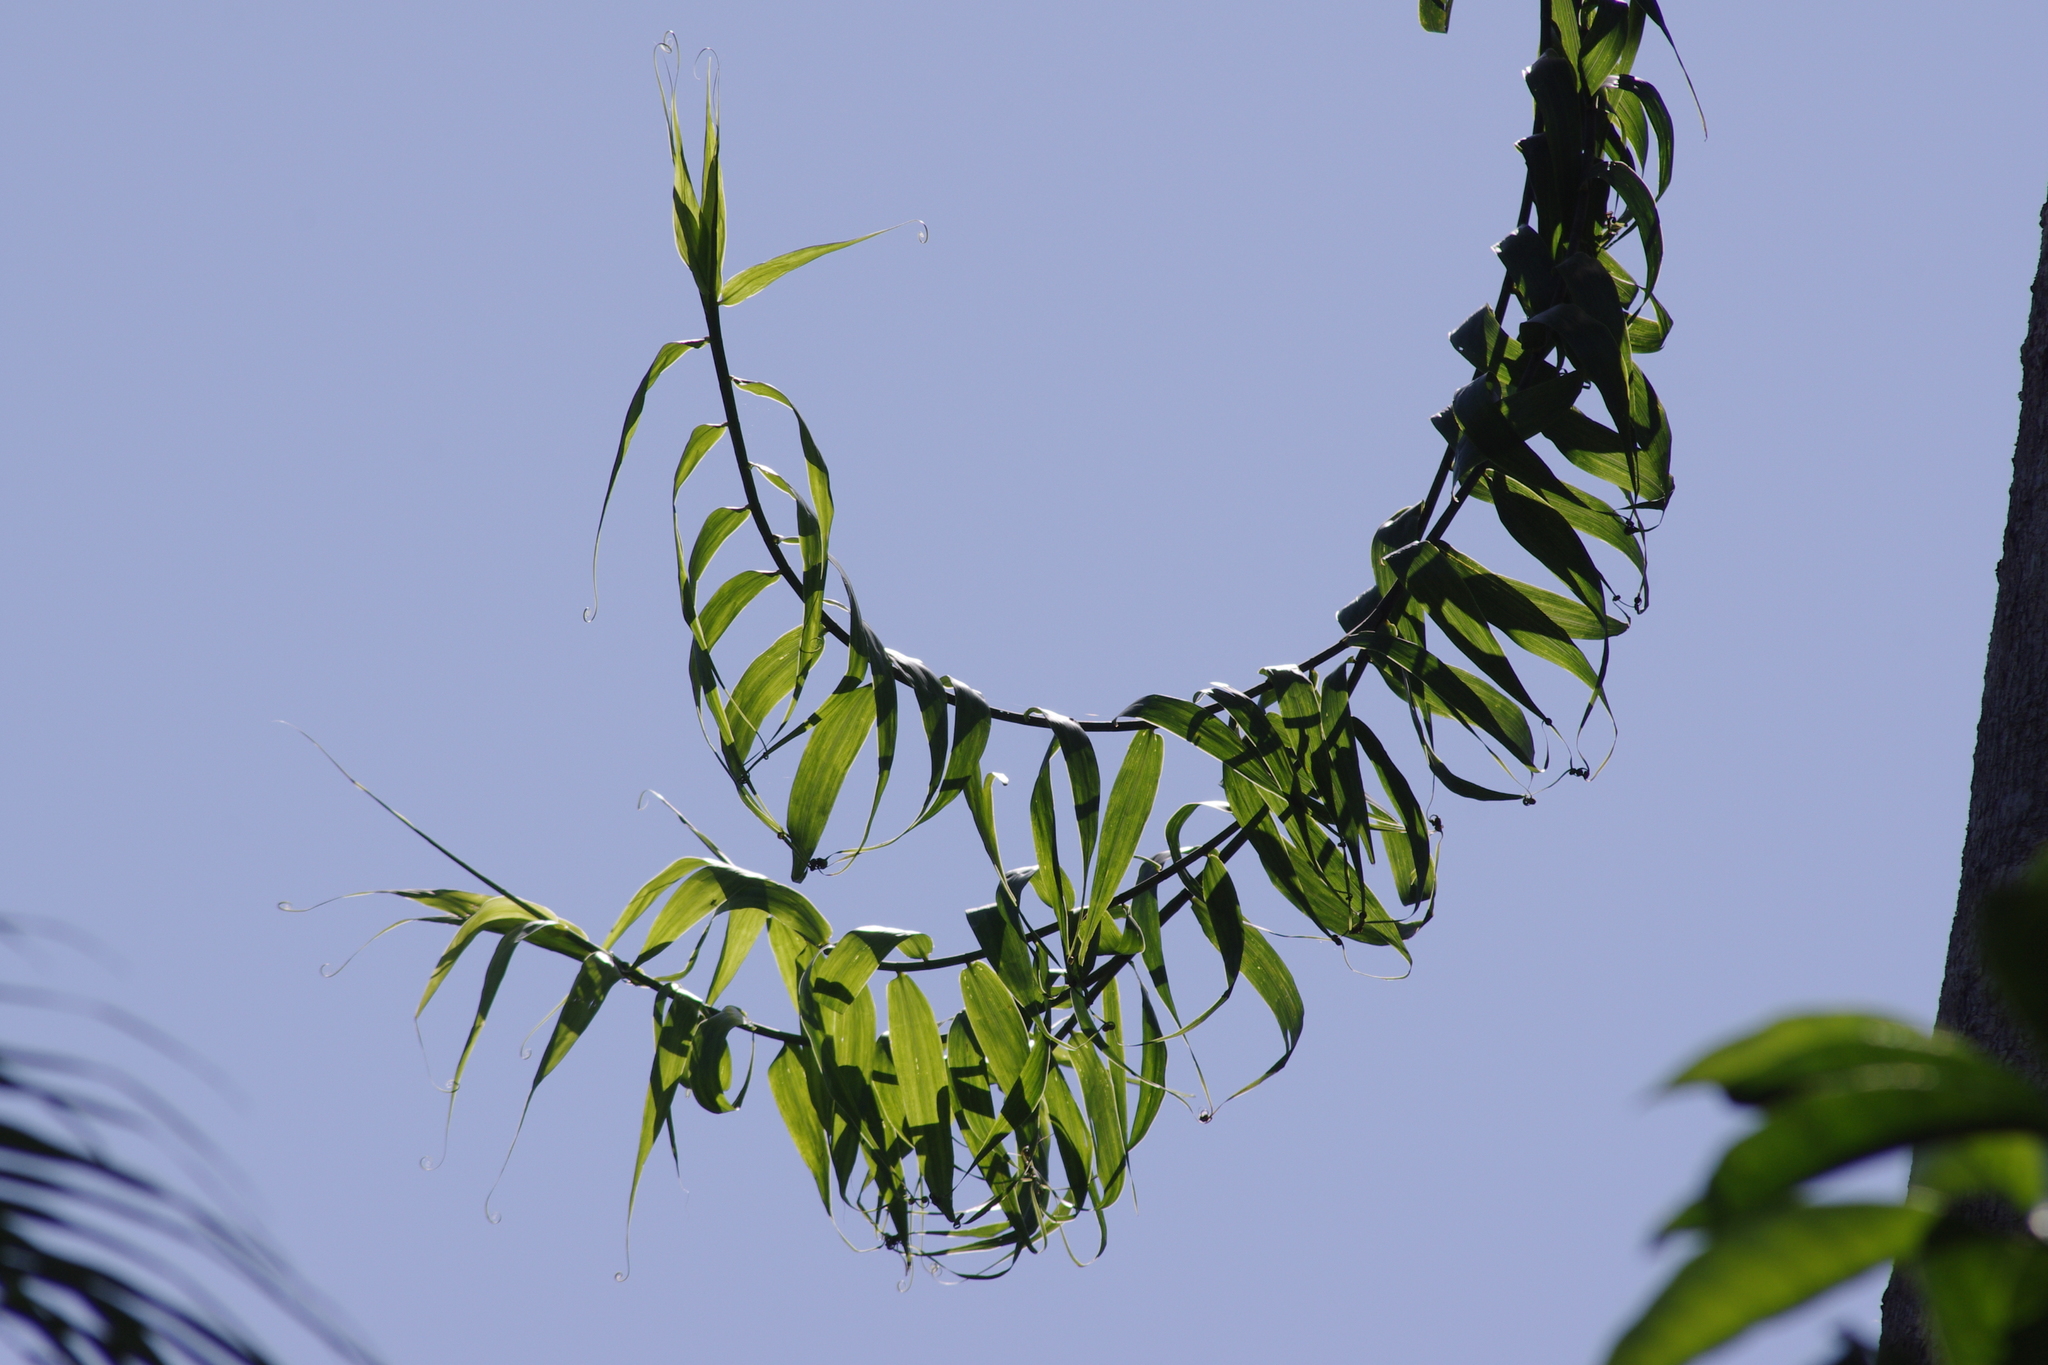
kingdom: Plantae
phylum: Tracheophyta
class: Liliopsida
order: Poales
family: Flagellariaceae
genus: Flagellaria
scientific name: Flagellaria indica
